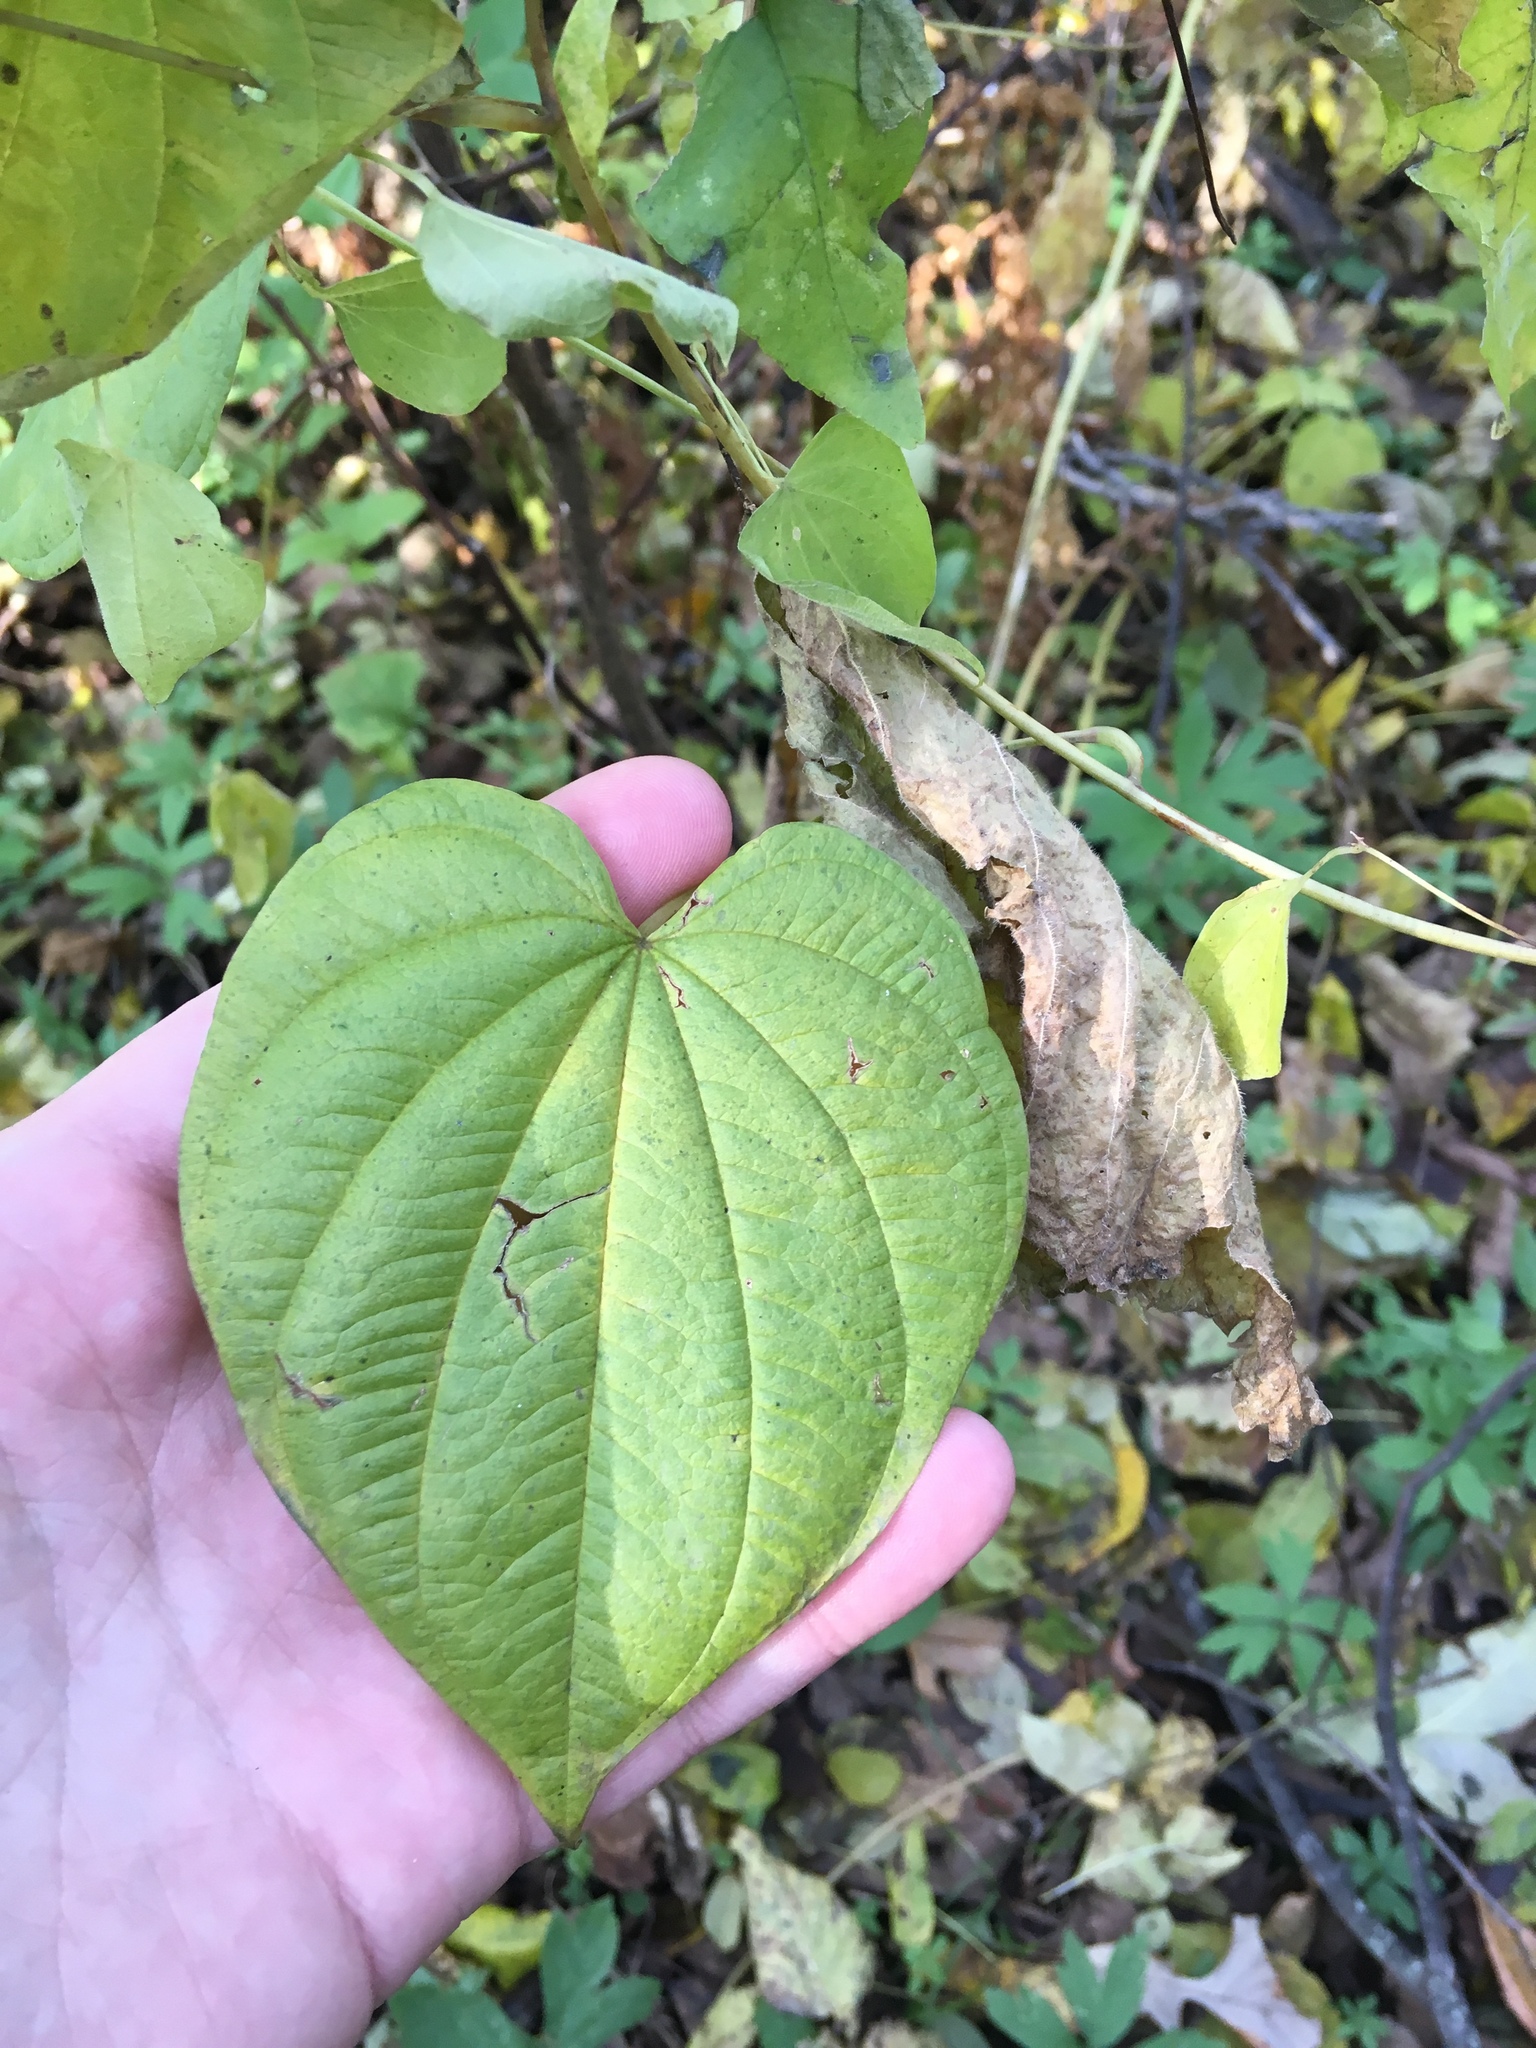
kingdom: Plantae
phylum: Tracheophyta
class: Liliopsida
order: Dioscoreales
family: Dioscoreaceae
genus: Dioscorea
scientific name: Dioscorea villosa
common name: Wild yam
